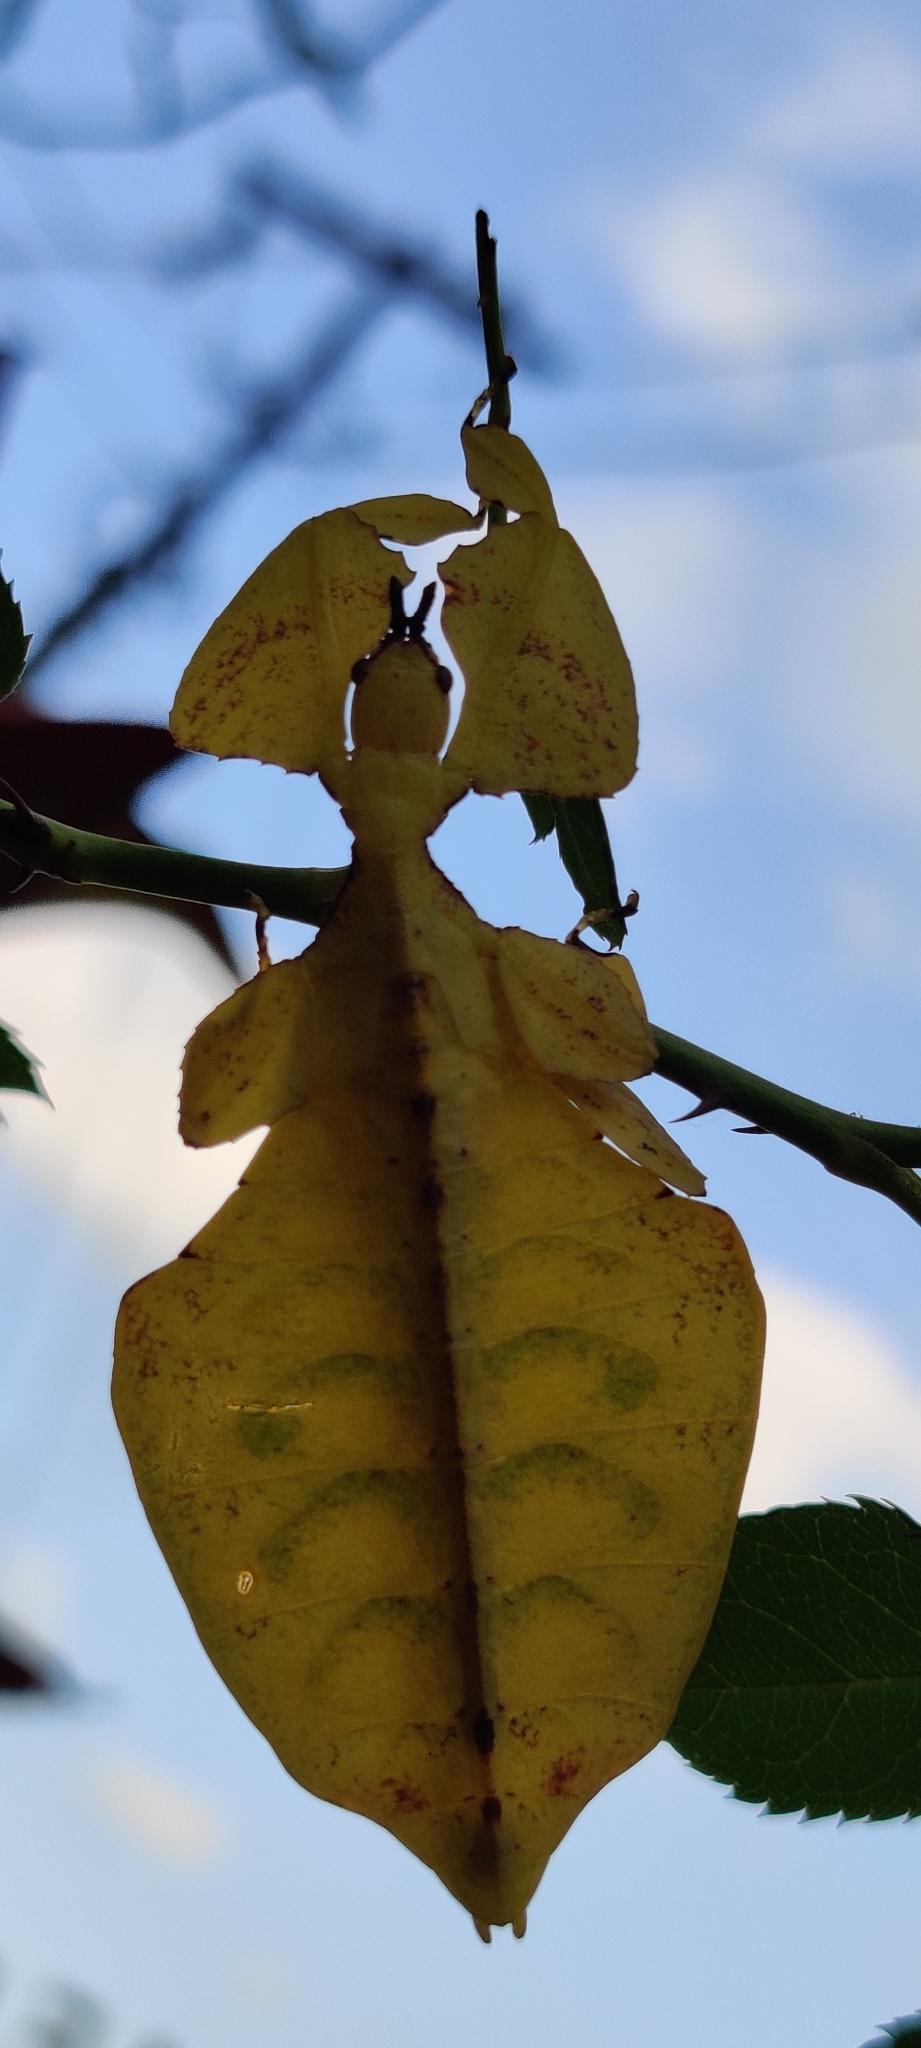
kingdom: Animalia
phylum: Arthropoda
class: Insecta
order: Phasmida
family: Phylliidae
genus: Pulchriphyllium
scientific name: Pulchriphyllium bioculatum
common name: Gray's leaf insect
